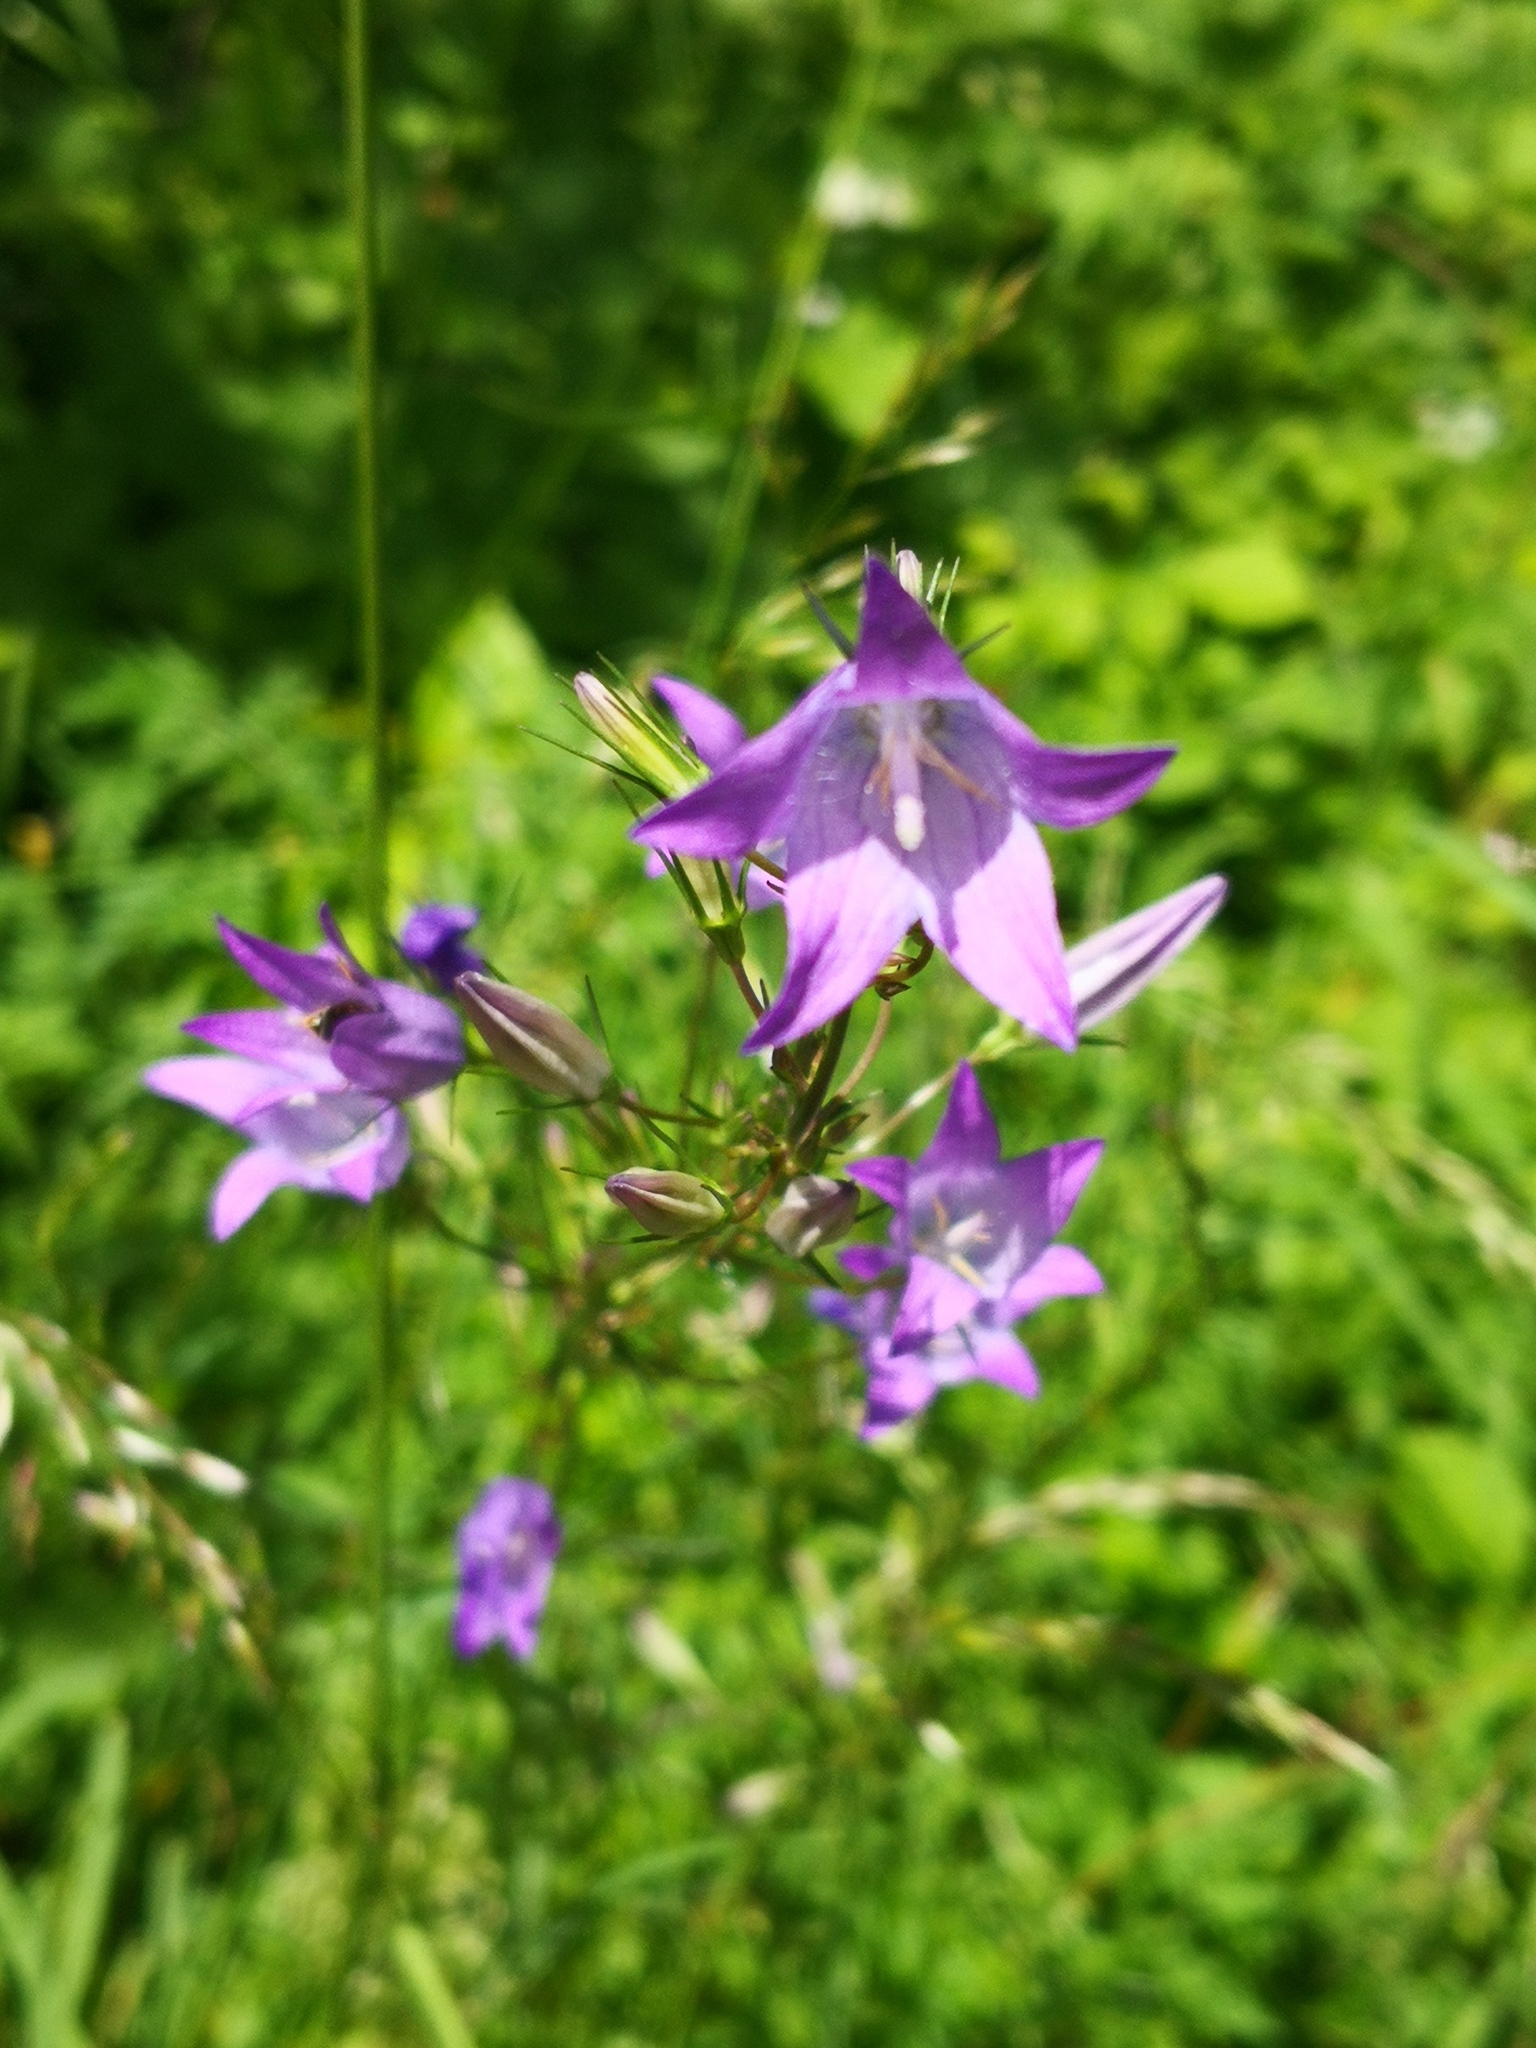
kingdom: Plantae
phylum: Tracheophyta
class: Magnoliopsida
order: Asterales
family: Campanulaceae
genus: Campanula
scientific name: Campanula rapunculus
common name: Rampion bellflower
